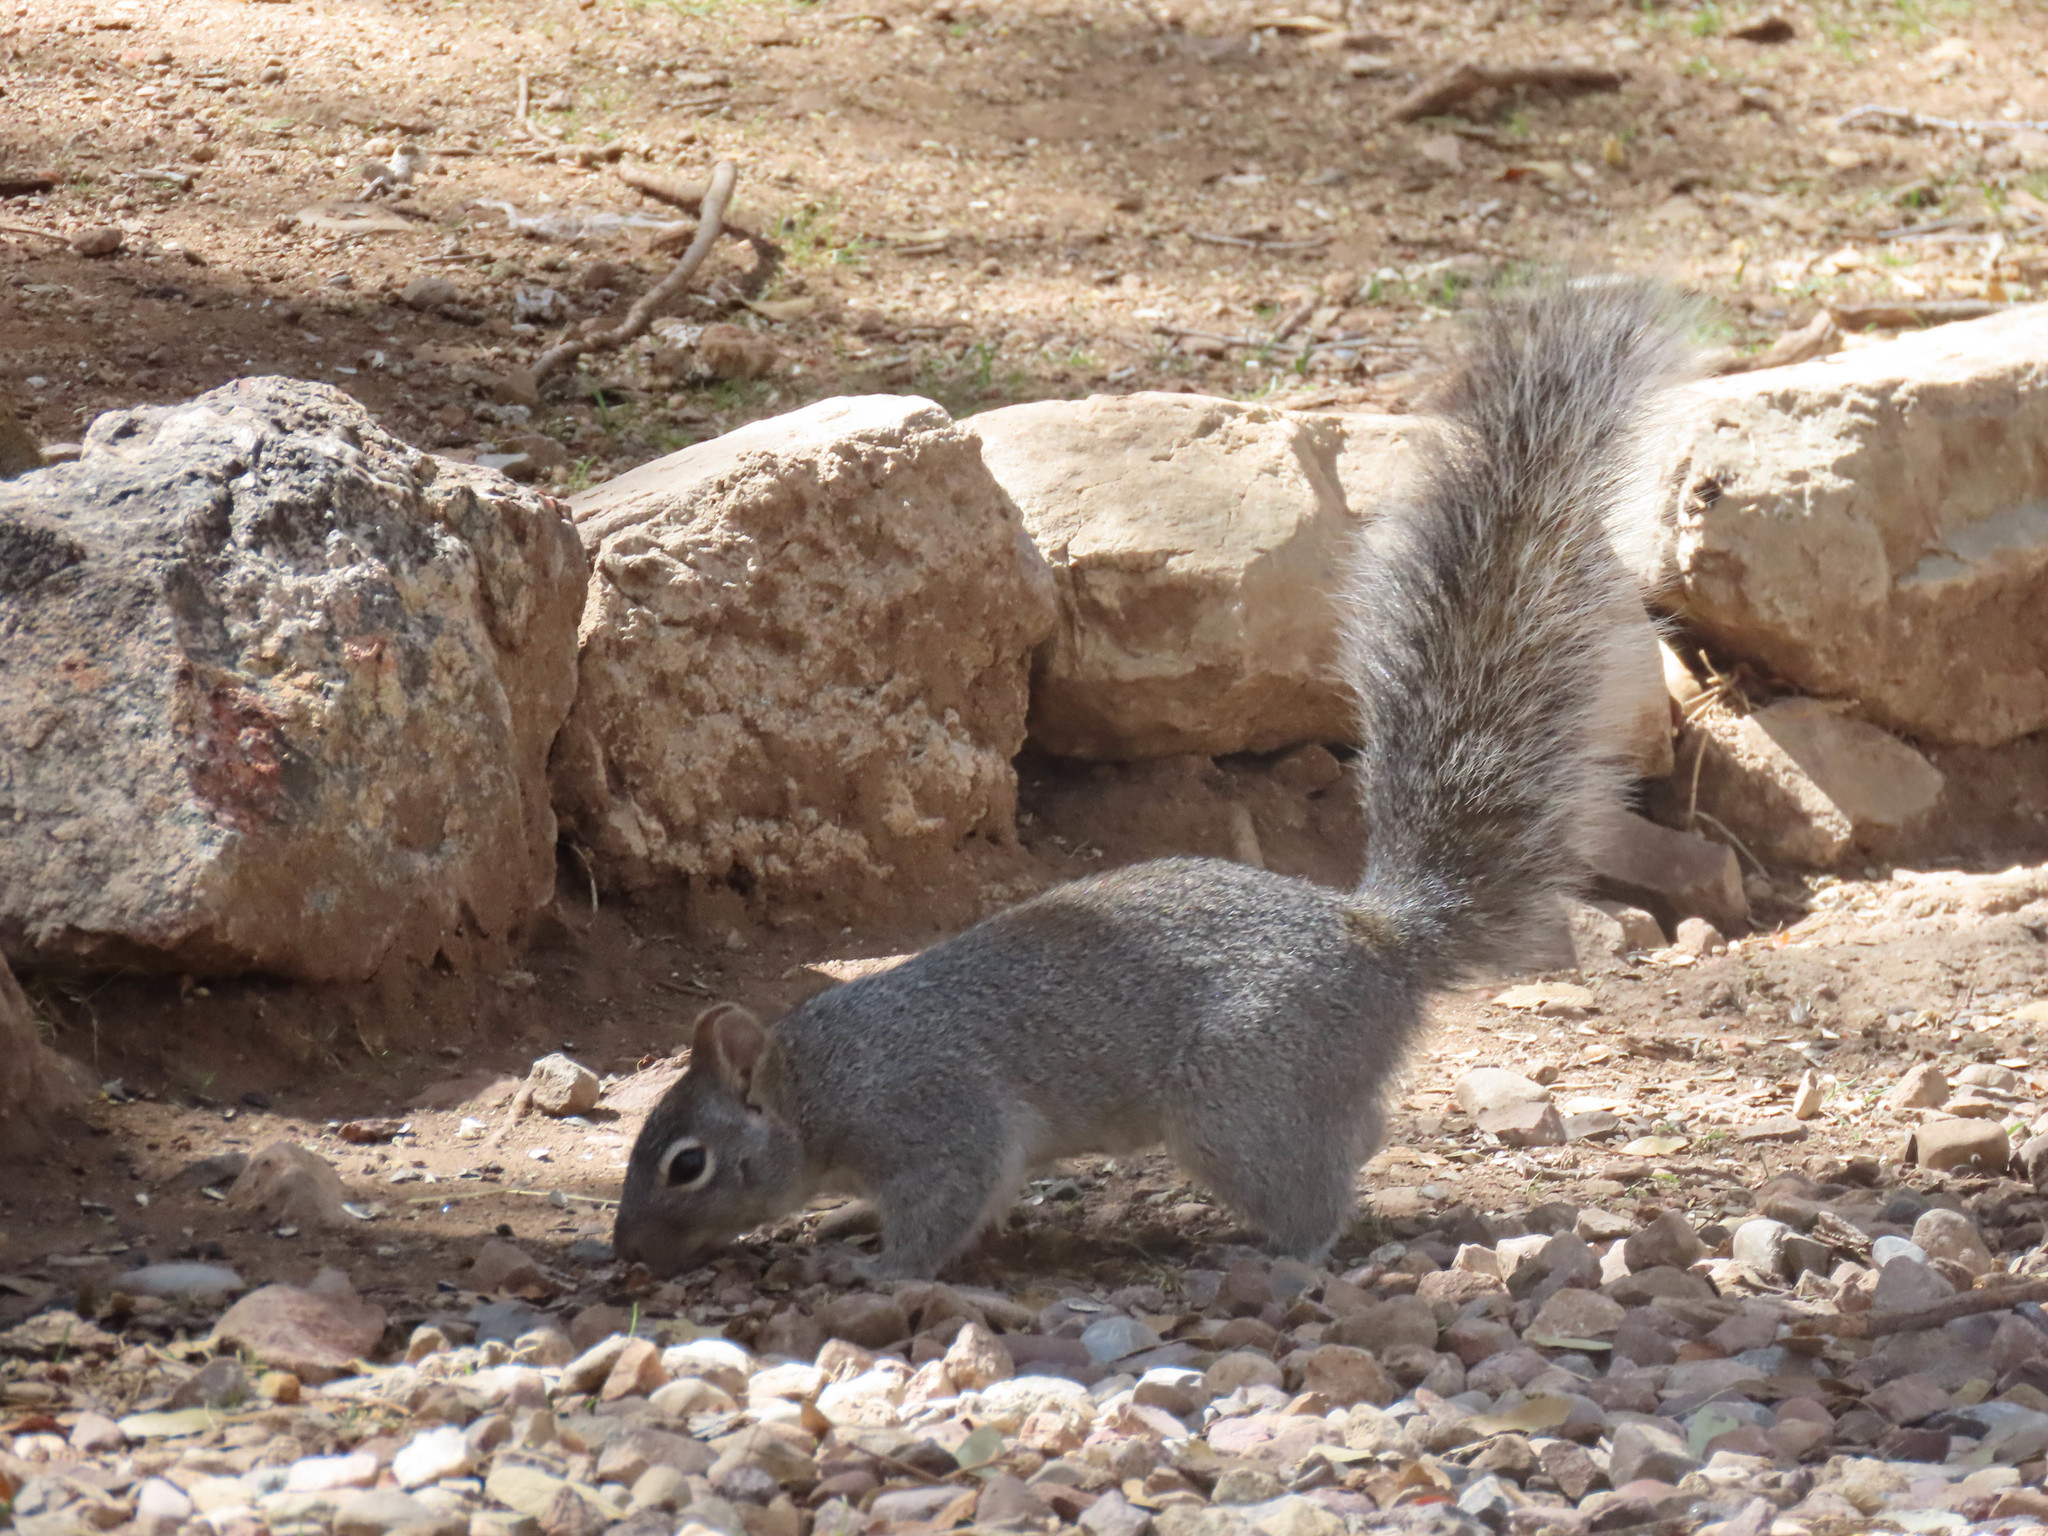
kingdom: Animalia
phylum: Chordata
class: Mammalia
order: Rodentia
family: Sciuridae
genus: Sciurus
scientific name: Sciurus arizonensis
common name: Arizona gray squirrel
